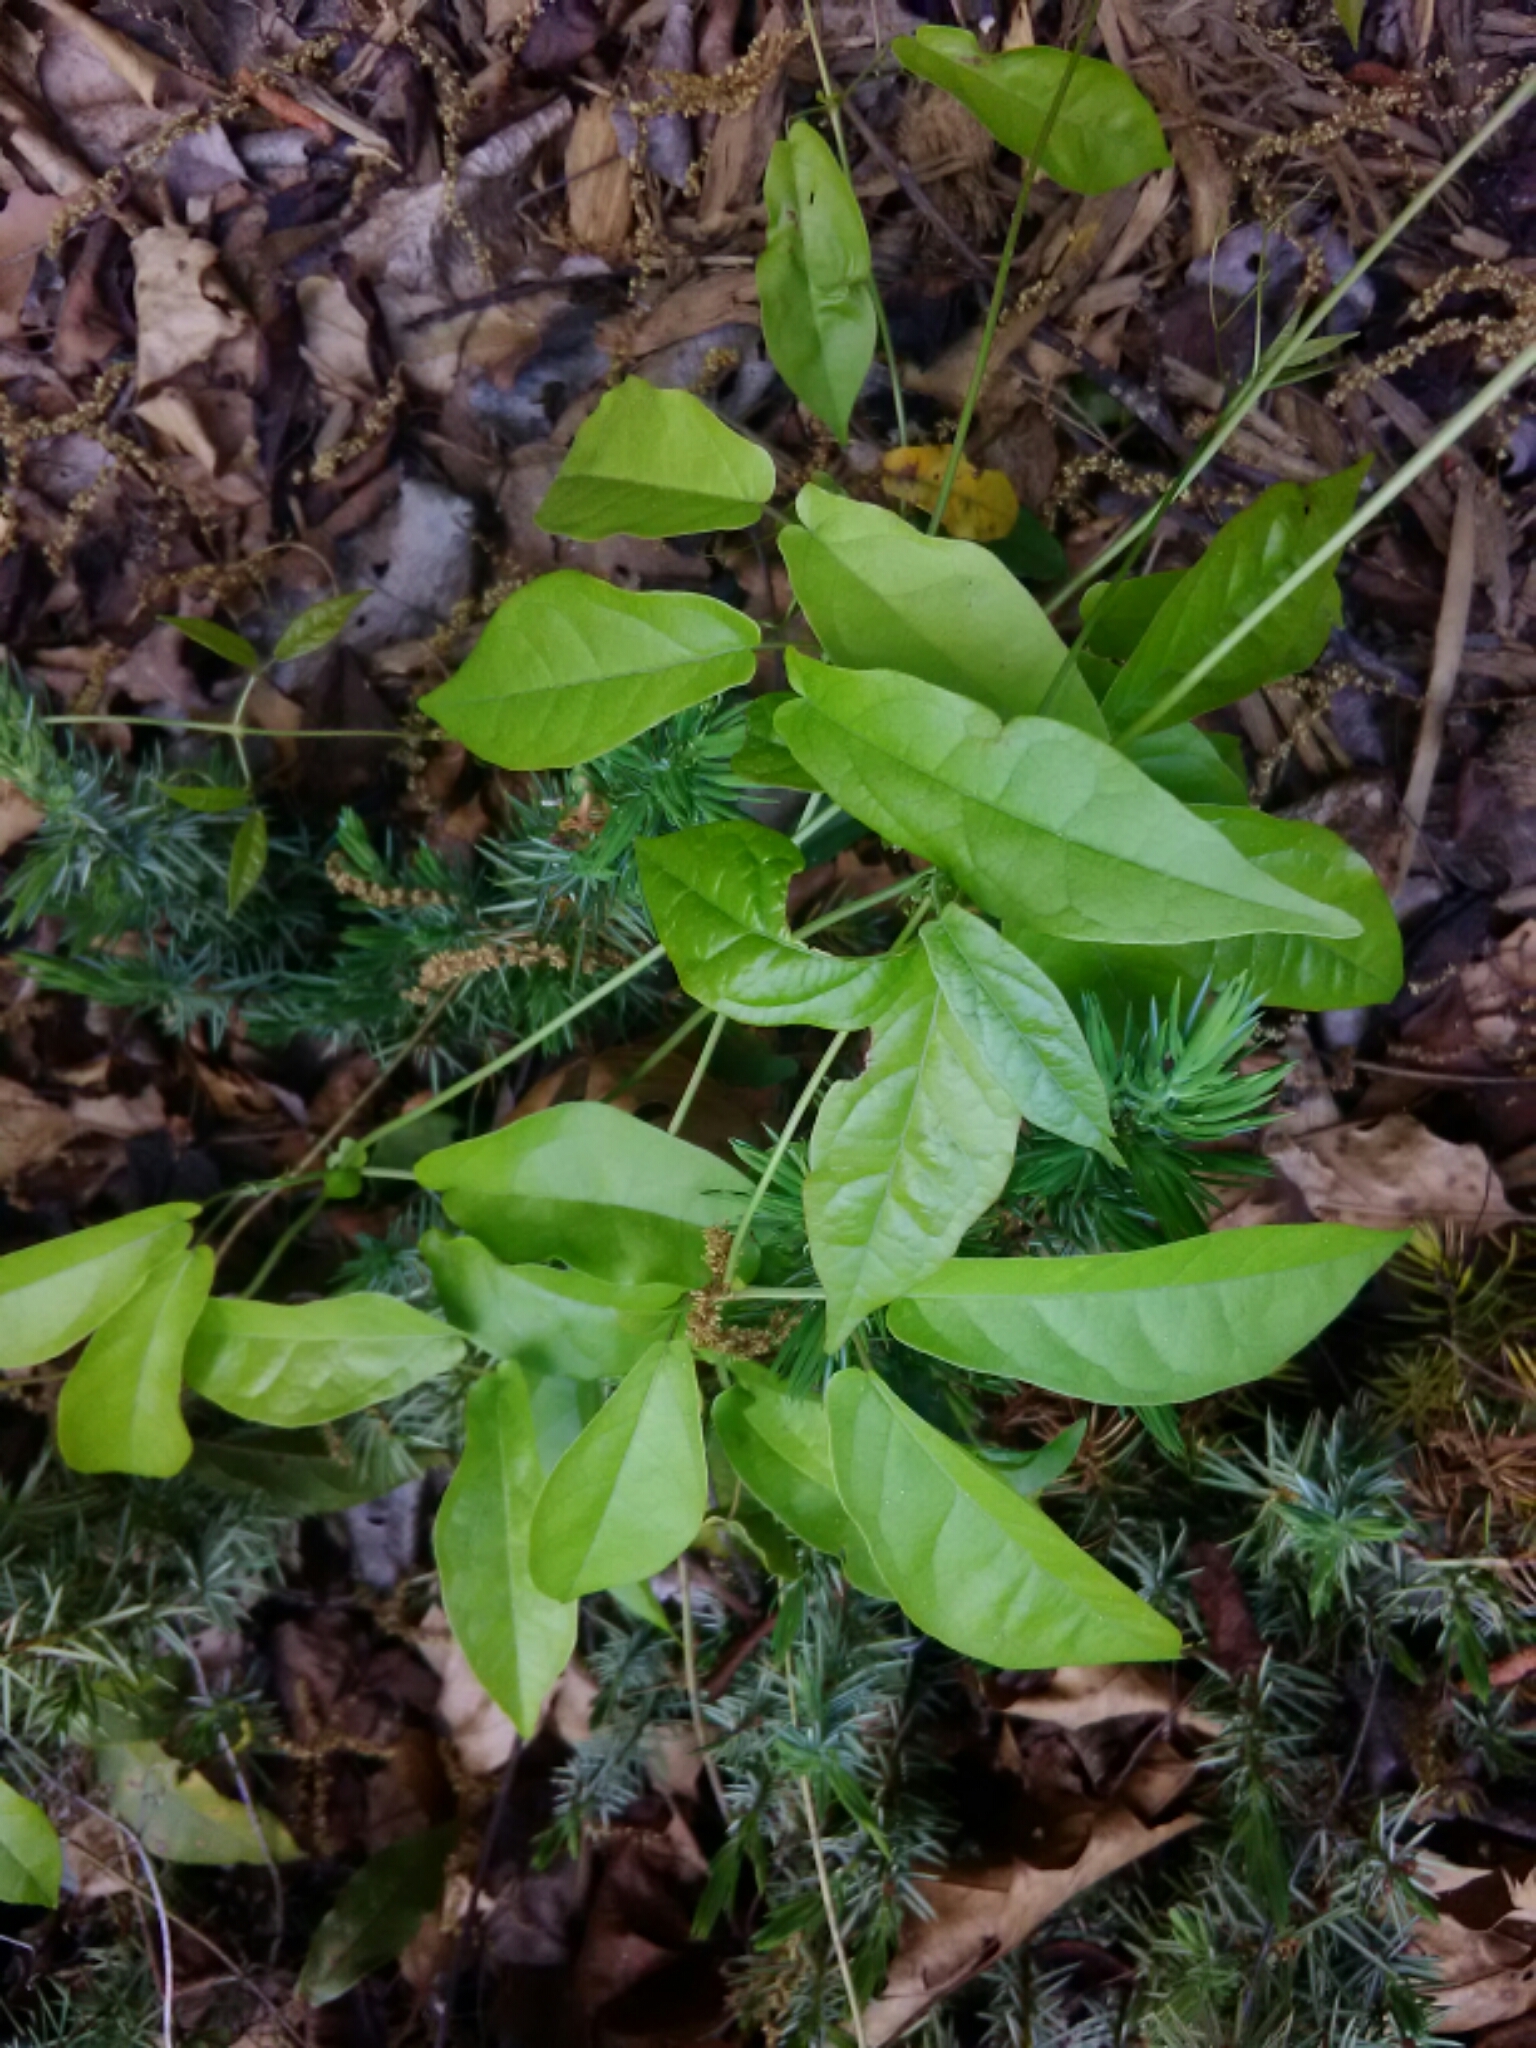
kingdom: Plantae
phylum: Tracheophyta
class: Magnoliopsida
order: Lamiales
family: Bignoniaceae
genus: Bignonia
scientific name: Bignonia capreolata
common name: Crossvine
